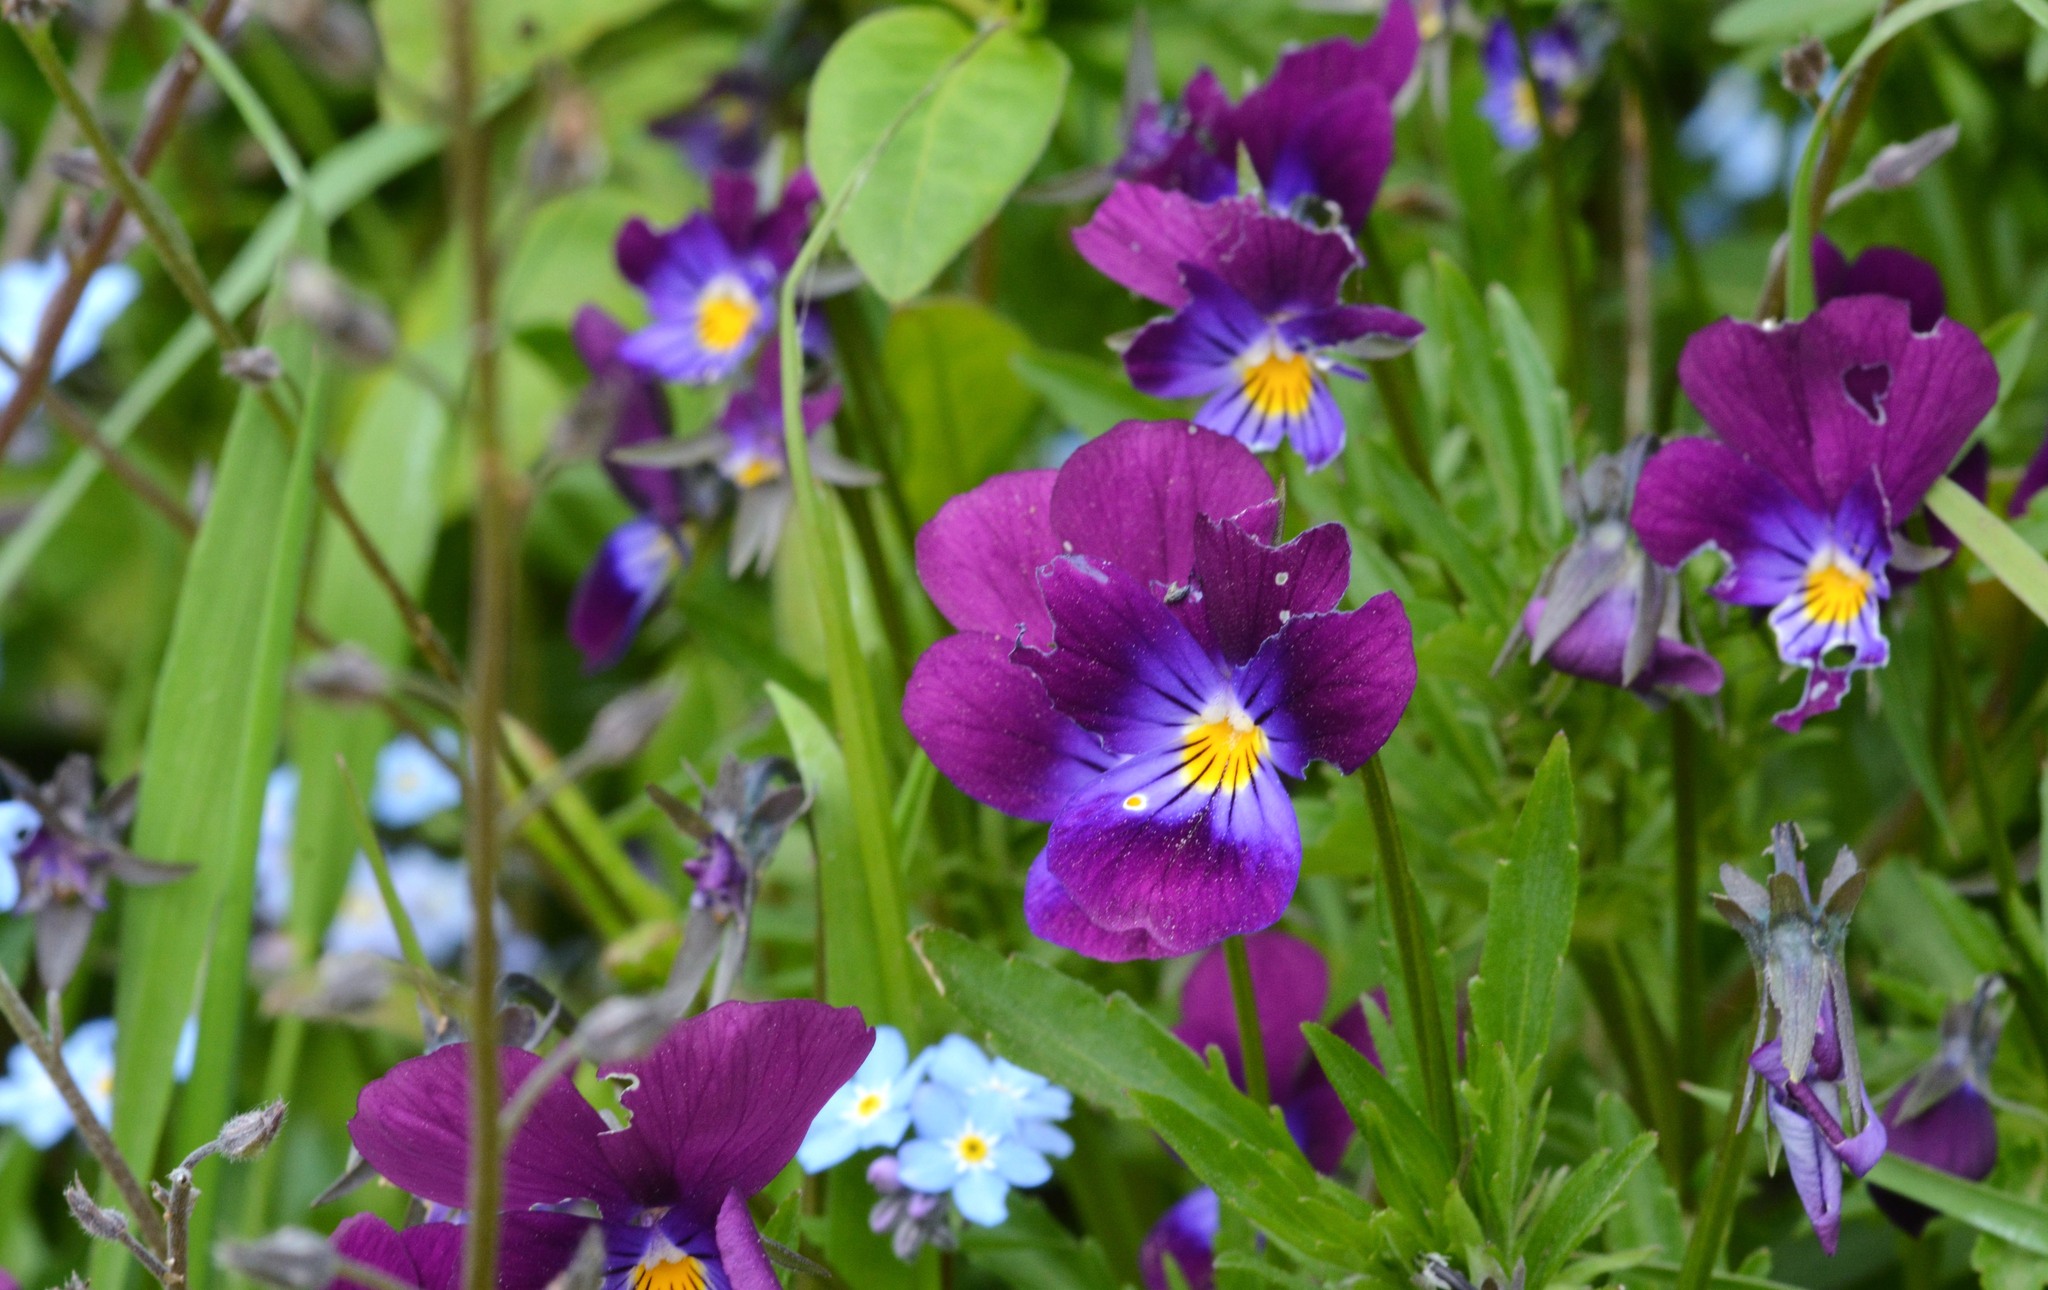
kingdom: Plantae
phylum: Tracheophyta
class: Magnoliopsida
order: Malpighiales
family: Violaceae
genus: Viola
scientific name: Viola williamsii
